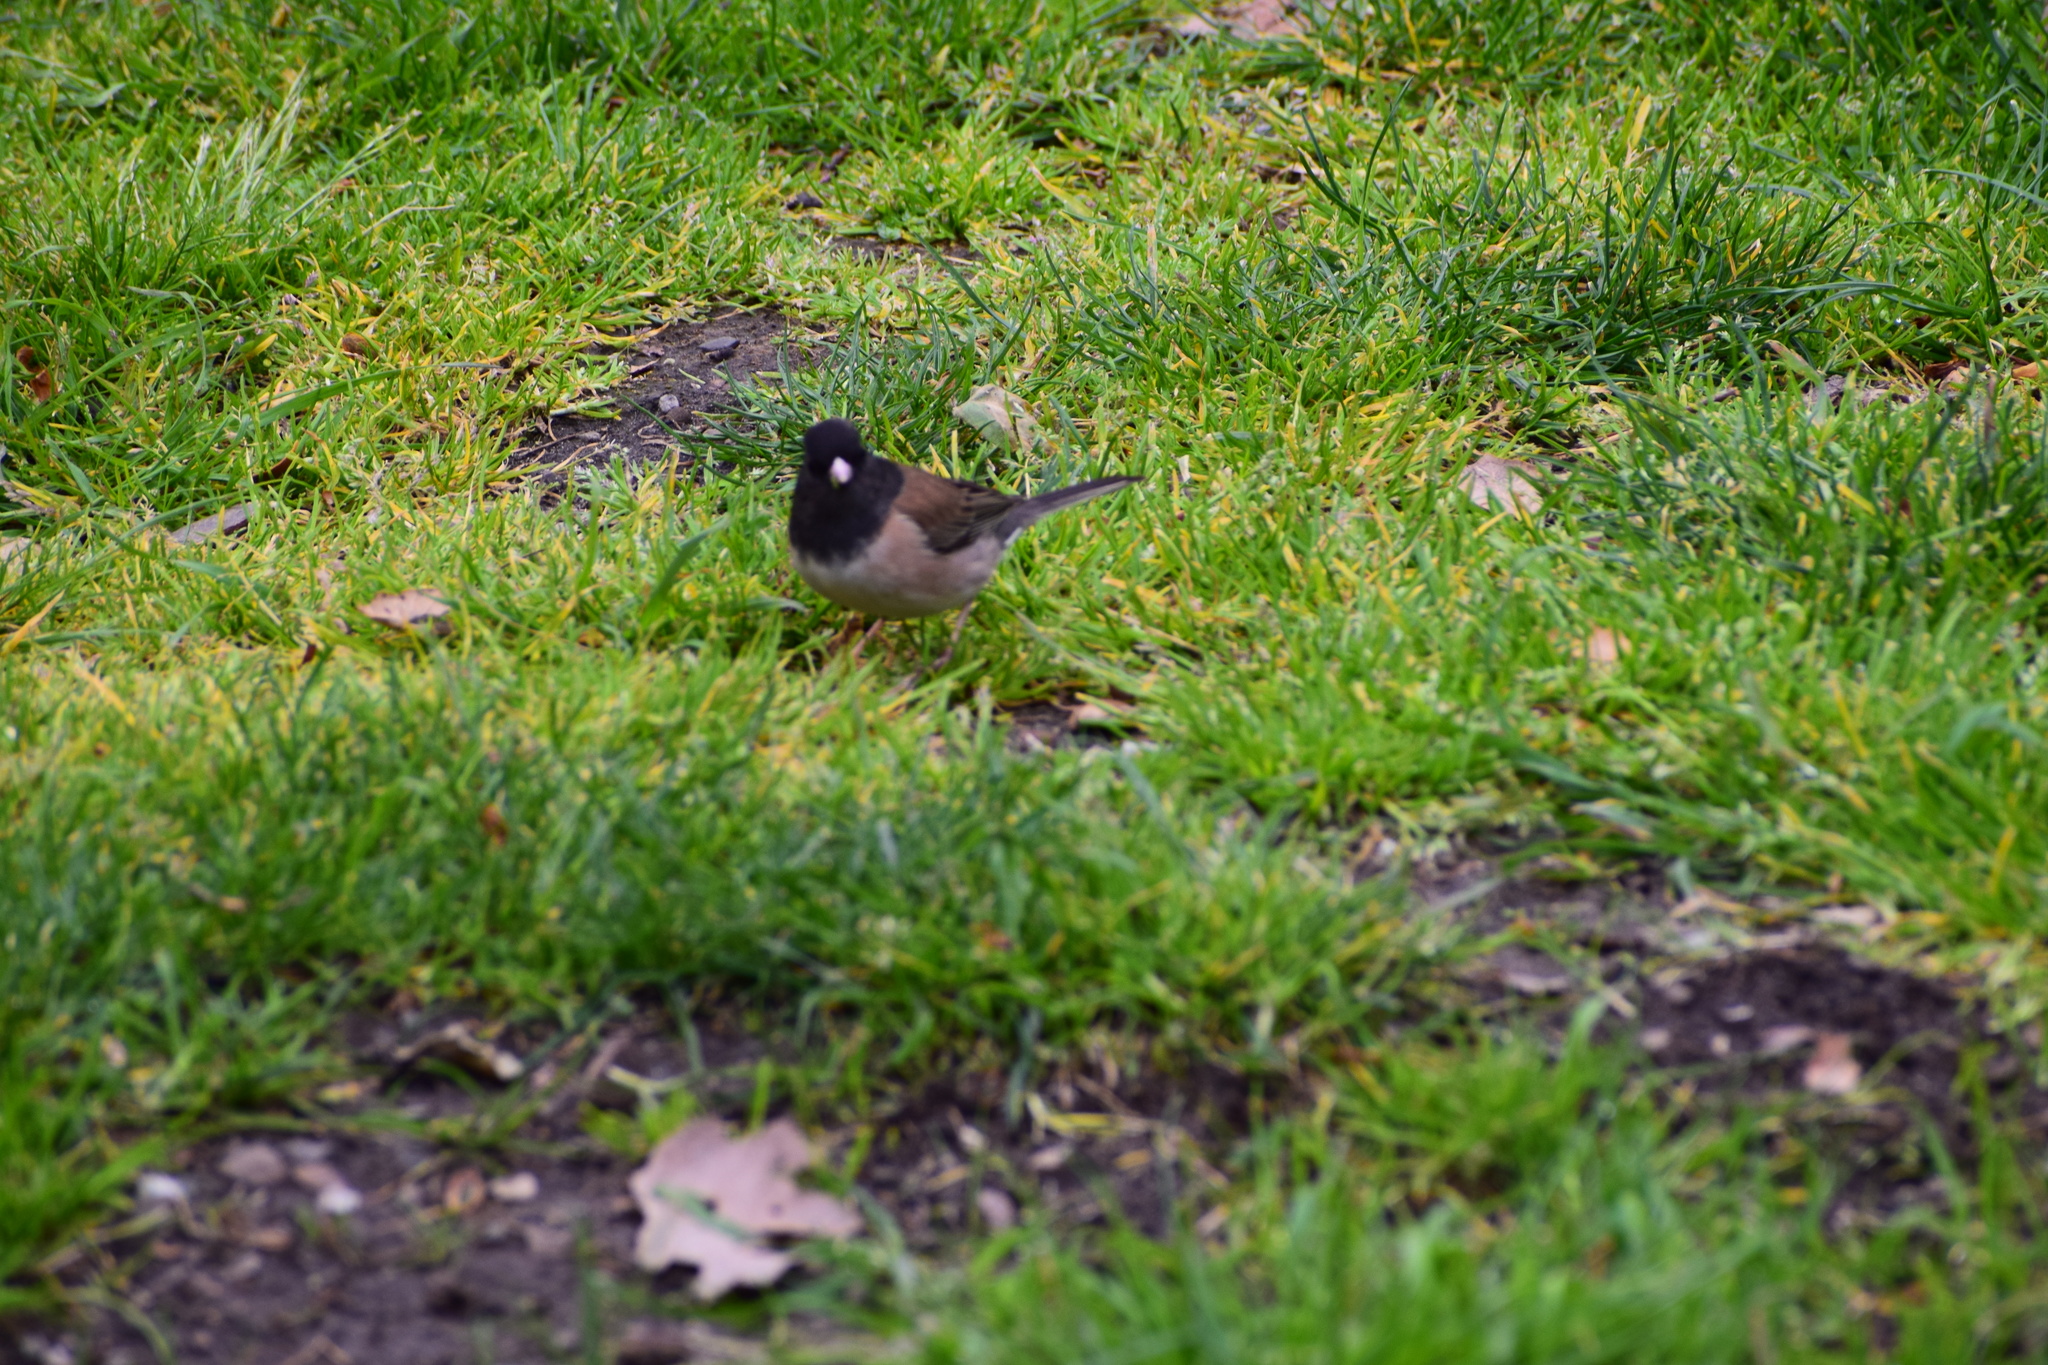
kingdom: Animalia
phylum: Chordata
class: Aves
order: Passeriformes
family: Passerellidae
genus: Junco
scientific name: Junco hyemalis
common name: Dark-eyed junco
